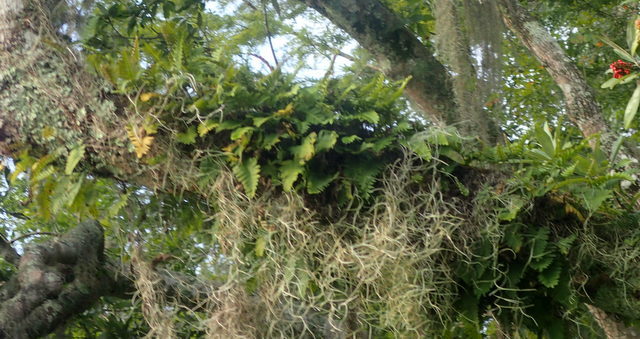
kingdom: Plantae
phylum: Tracheophyta
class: Polypodiopsida
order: Polypodiales
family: Polypodiaceae
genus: Pleopeltis
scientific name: Pleopeltis michauxiana
